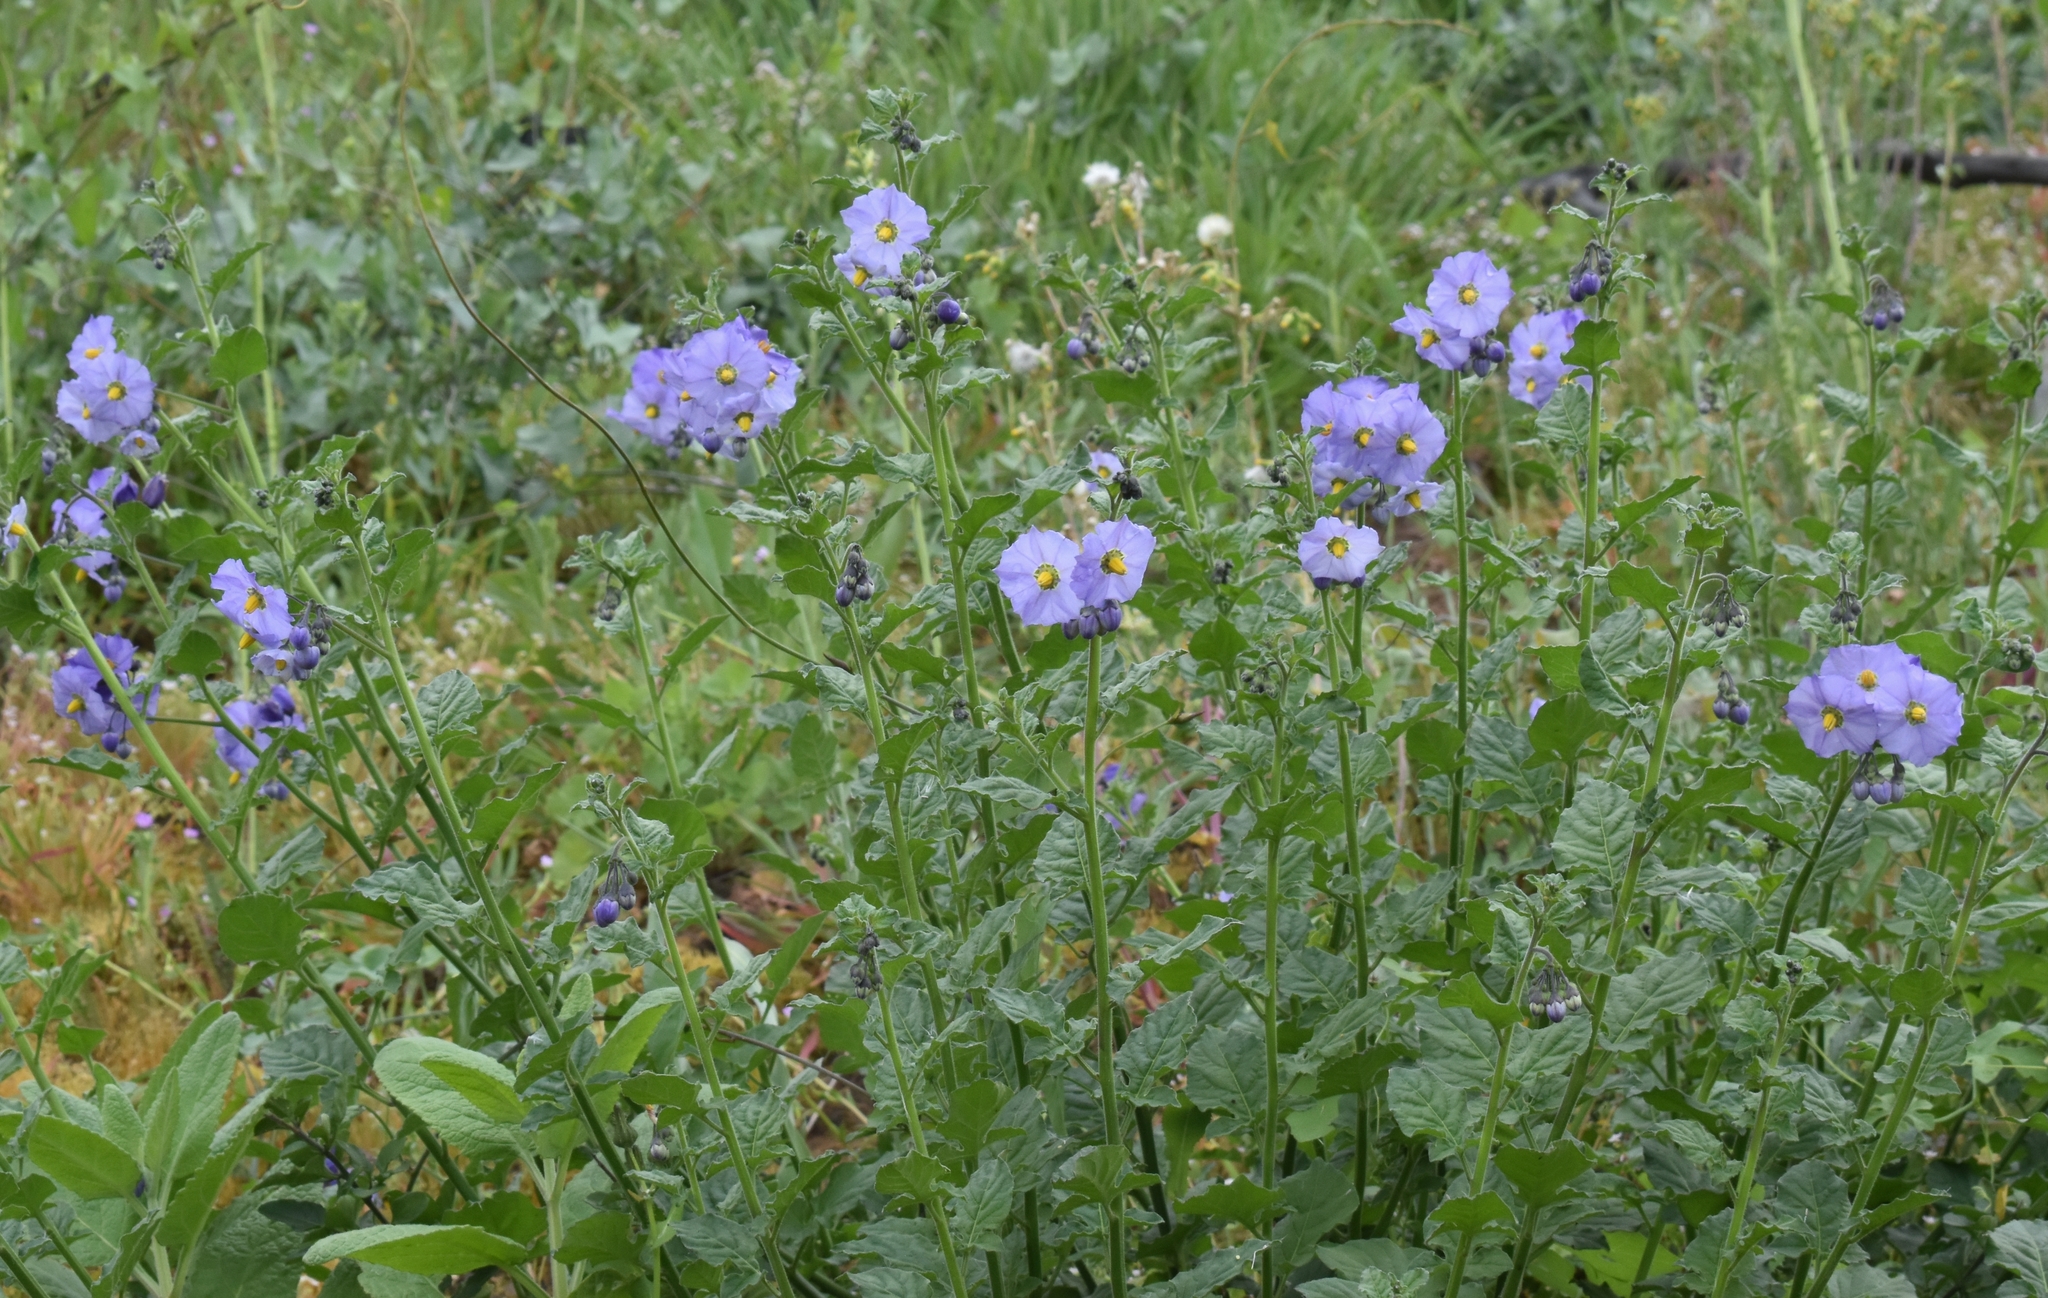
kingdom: Plantae
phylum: Tracheophyta
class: Magnoliopsida
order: Solanales
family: Solanaceae
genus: Solanum
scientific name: Solanum umbelliferum
